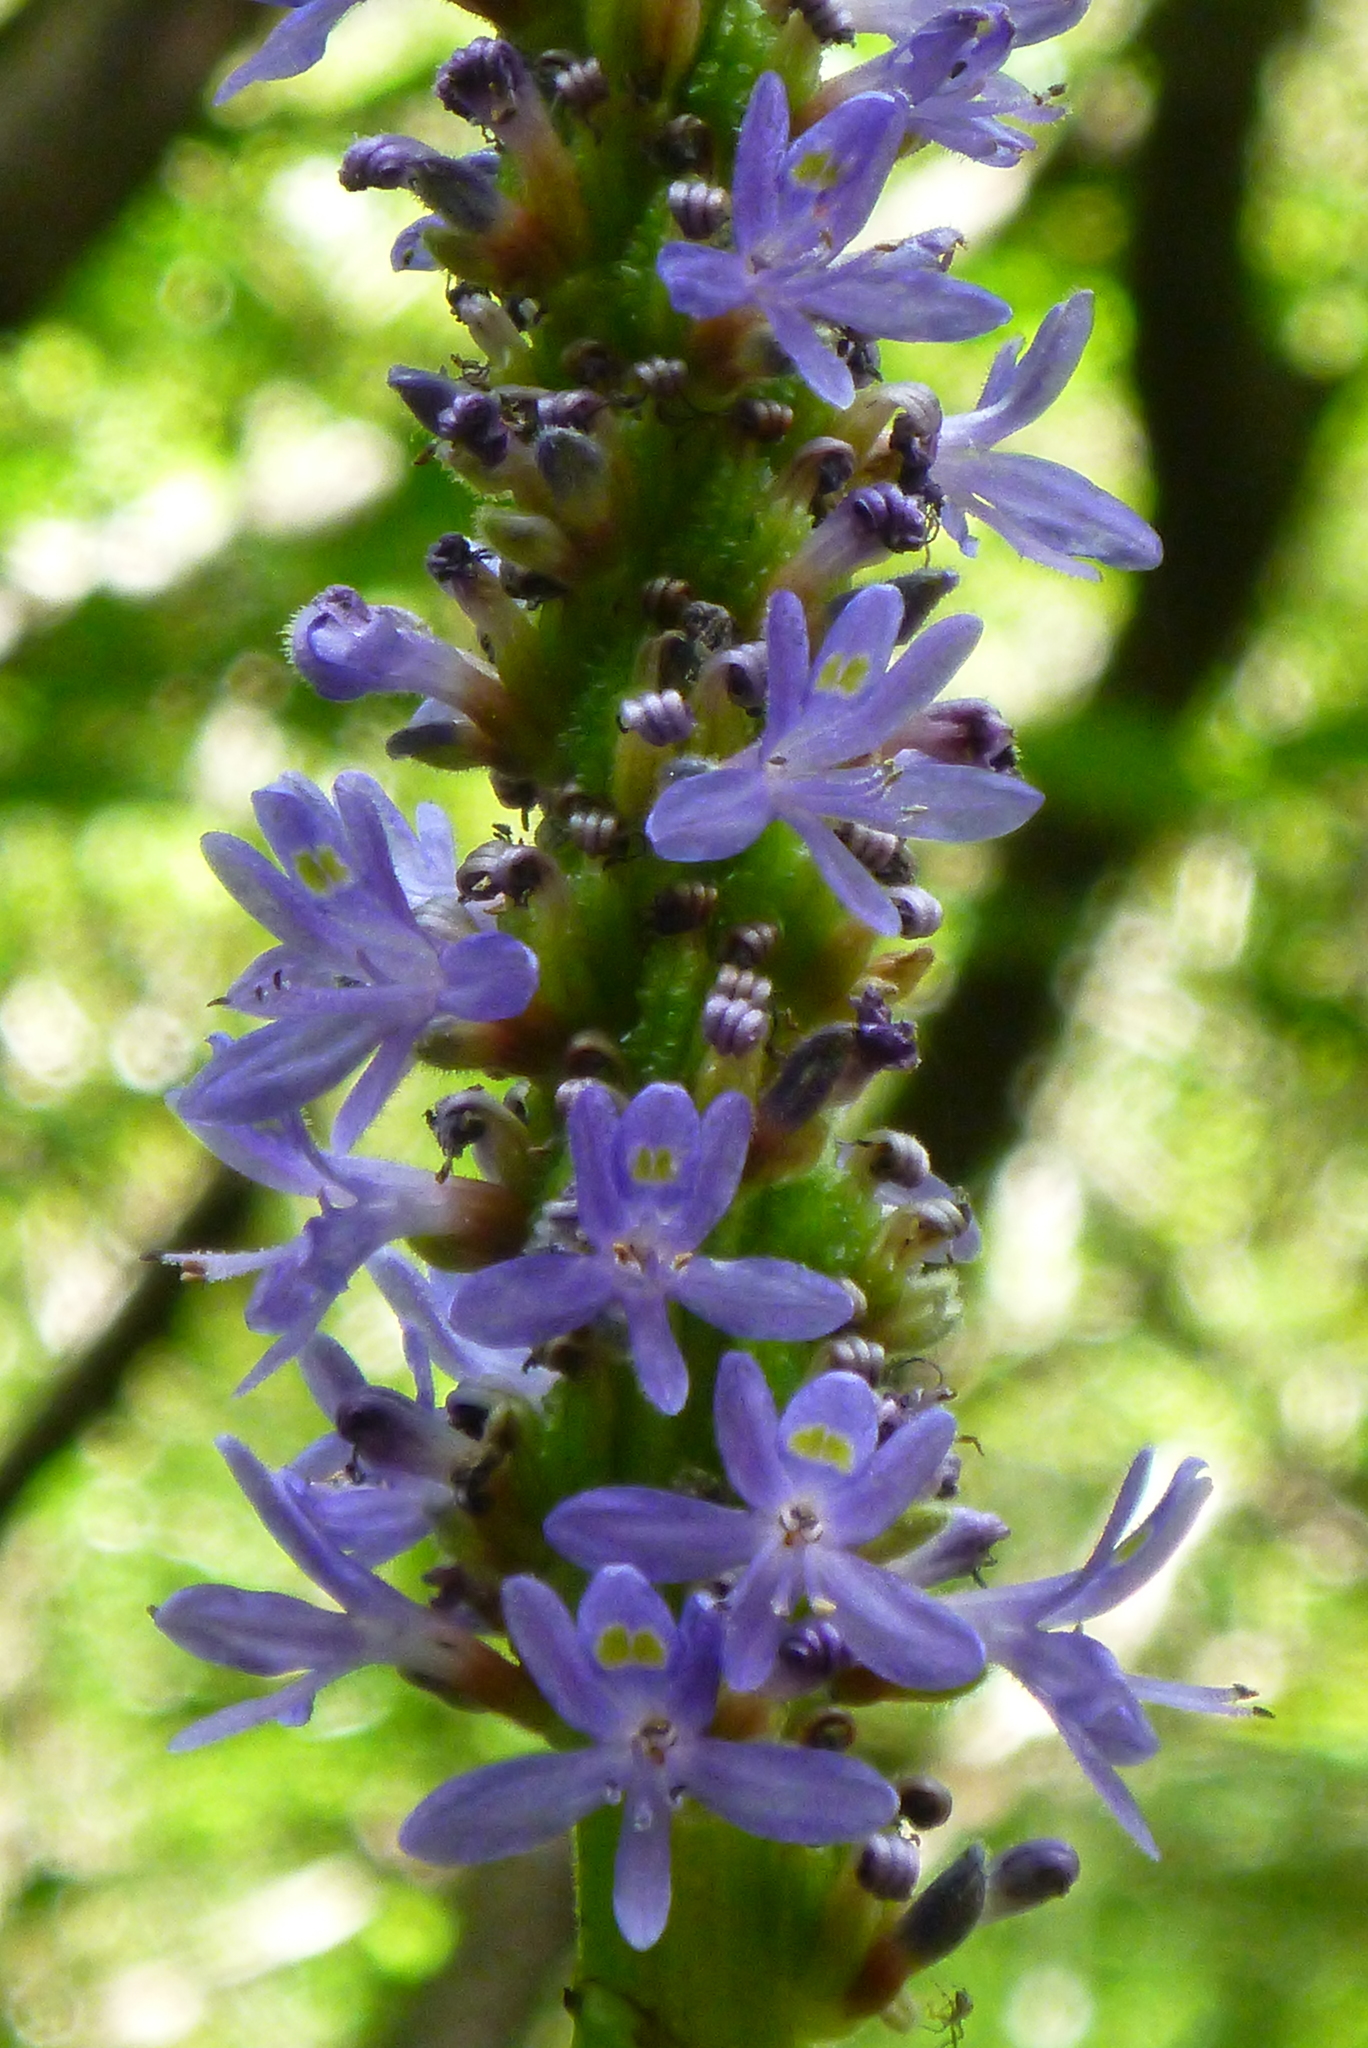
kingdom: Plantae
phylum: Tracheophyta
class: Liliopsida
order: Commelinales
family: Pontederiaceae
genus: Pontederia
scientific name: Pontederia cordata
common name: Pickerelweed
